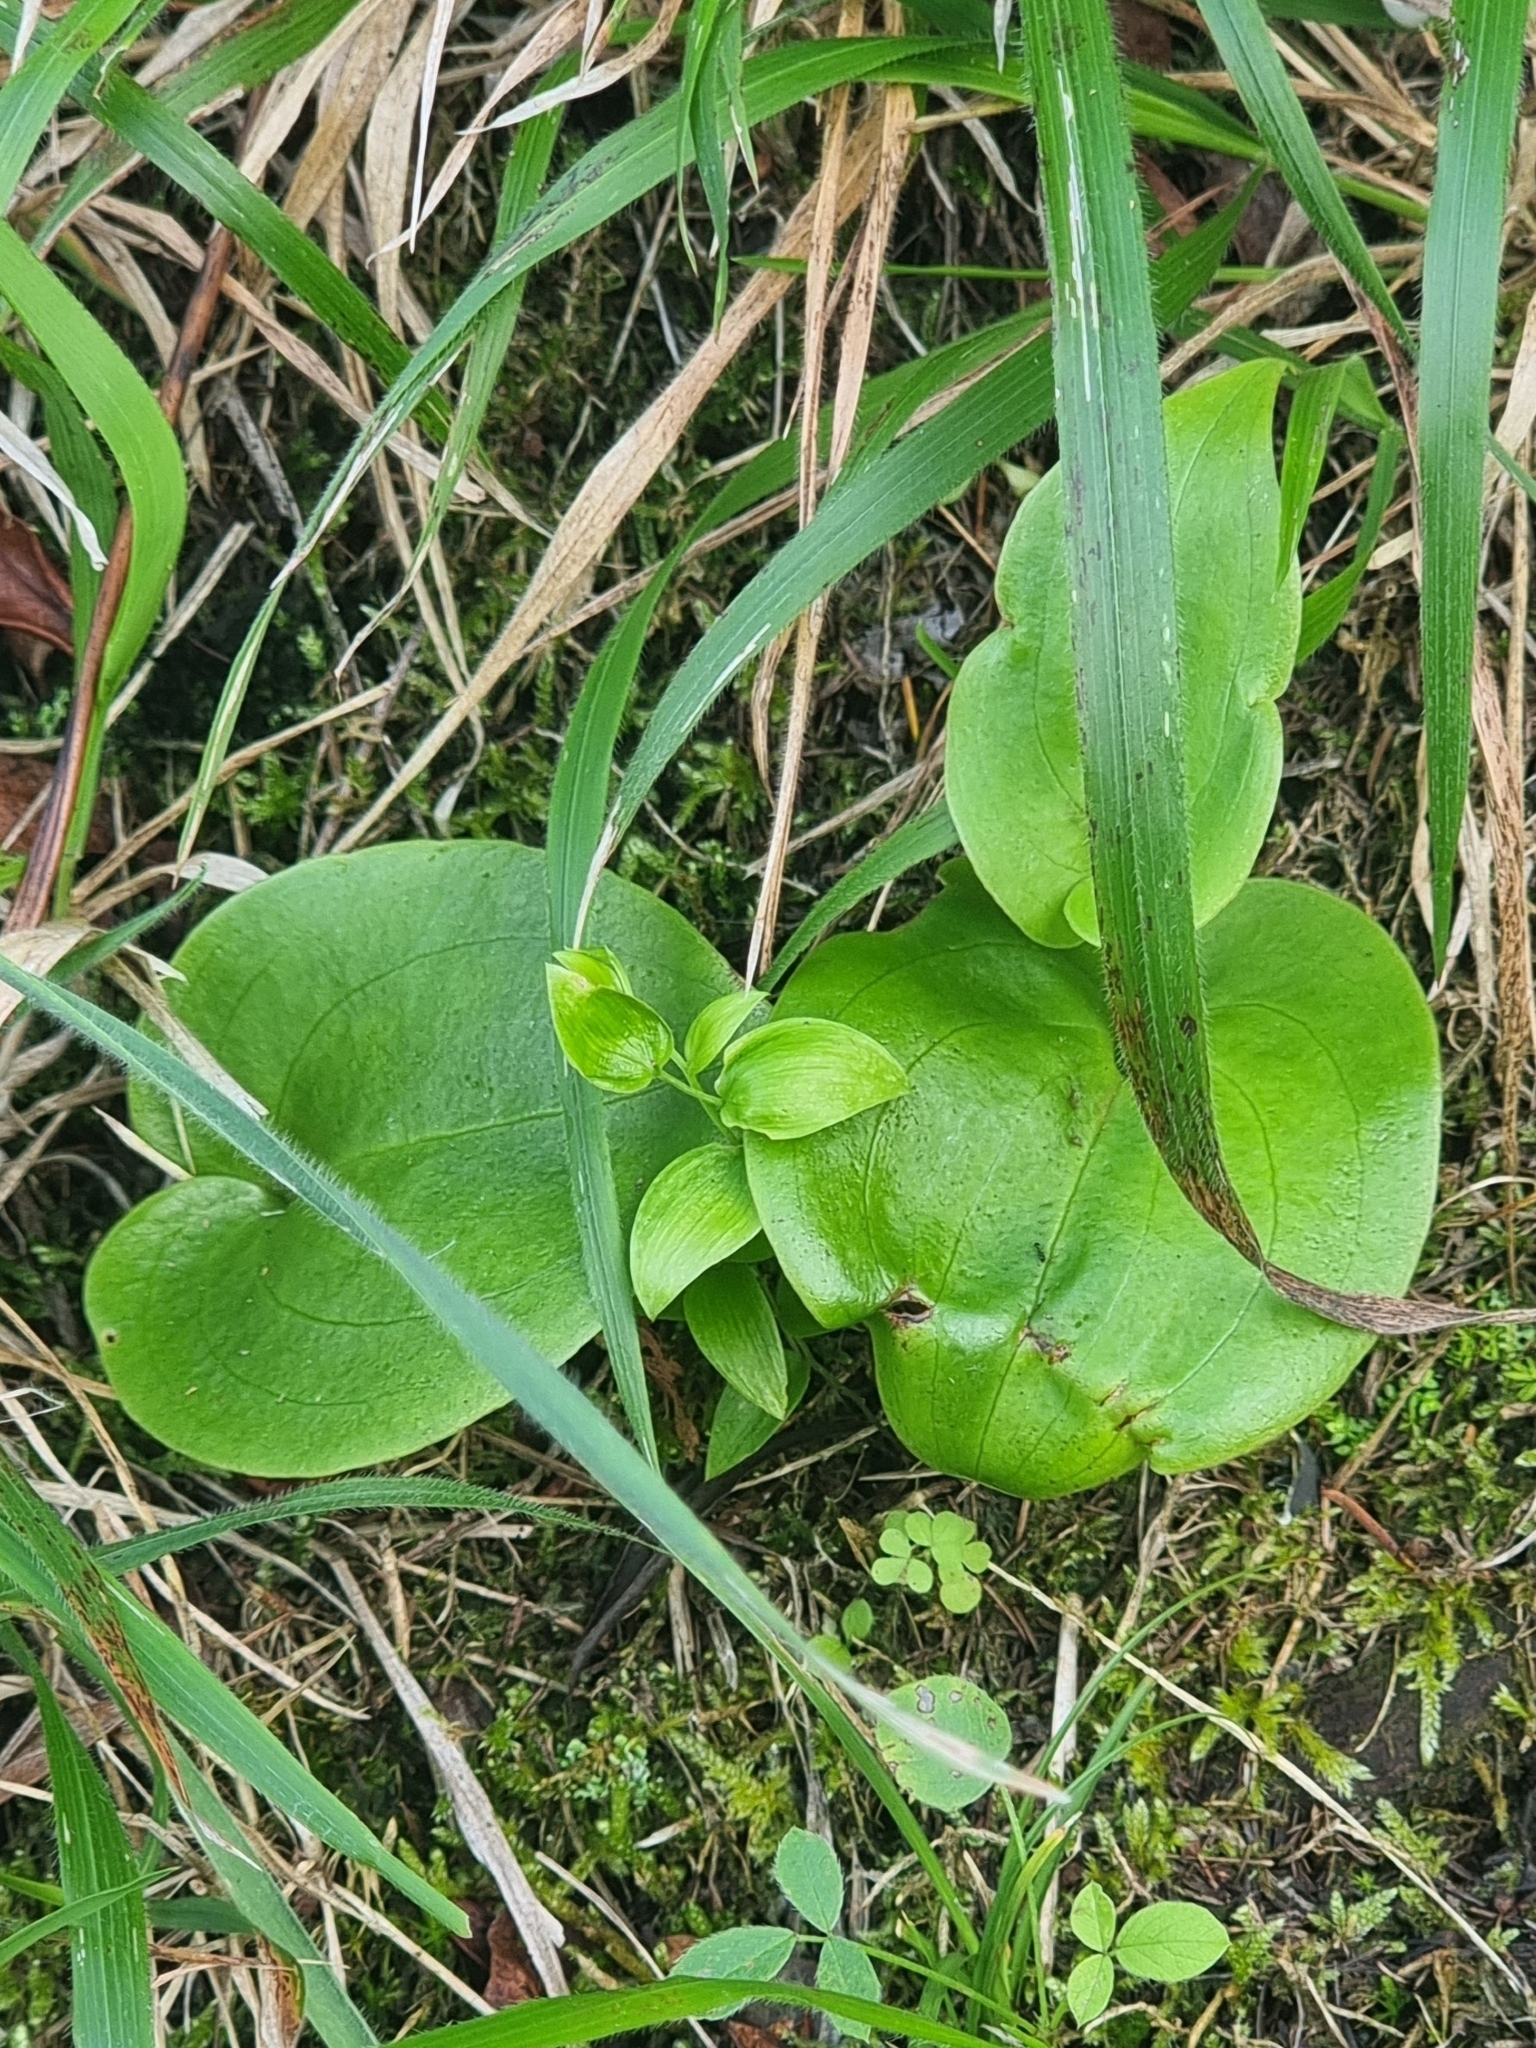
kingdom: Plantae
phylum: Tracheophyta
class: Liliopsida
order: Asparagales
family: Orchidaceae
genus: Gennaria
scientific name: Gennaria diphylla
